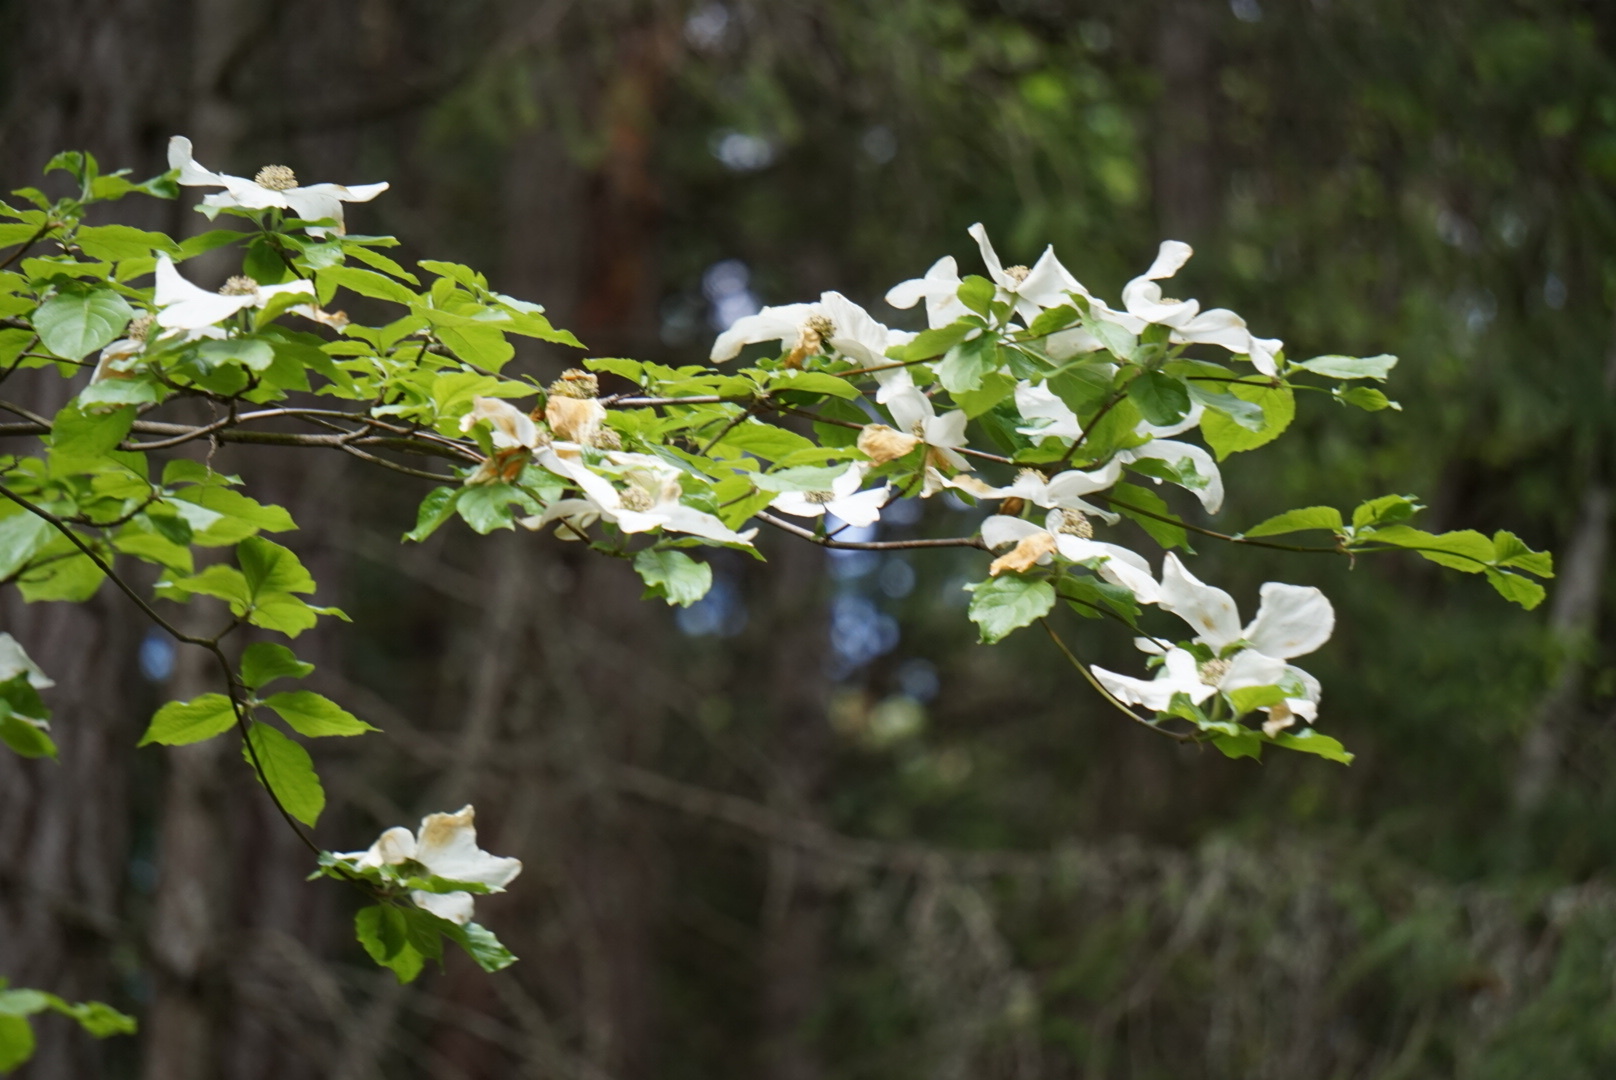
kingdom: Plantae
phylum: Tracheophyta
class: Magnoliopsida
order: Cornales
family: Cornaceae
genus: Cornus
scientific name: Cornus nuttallii
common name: Pacific dogwood
